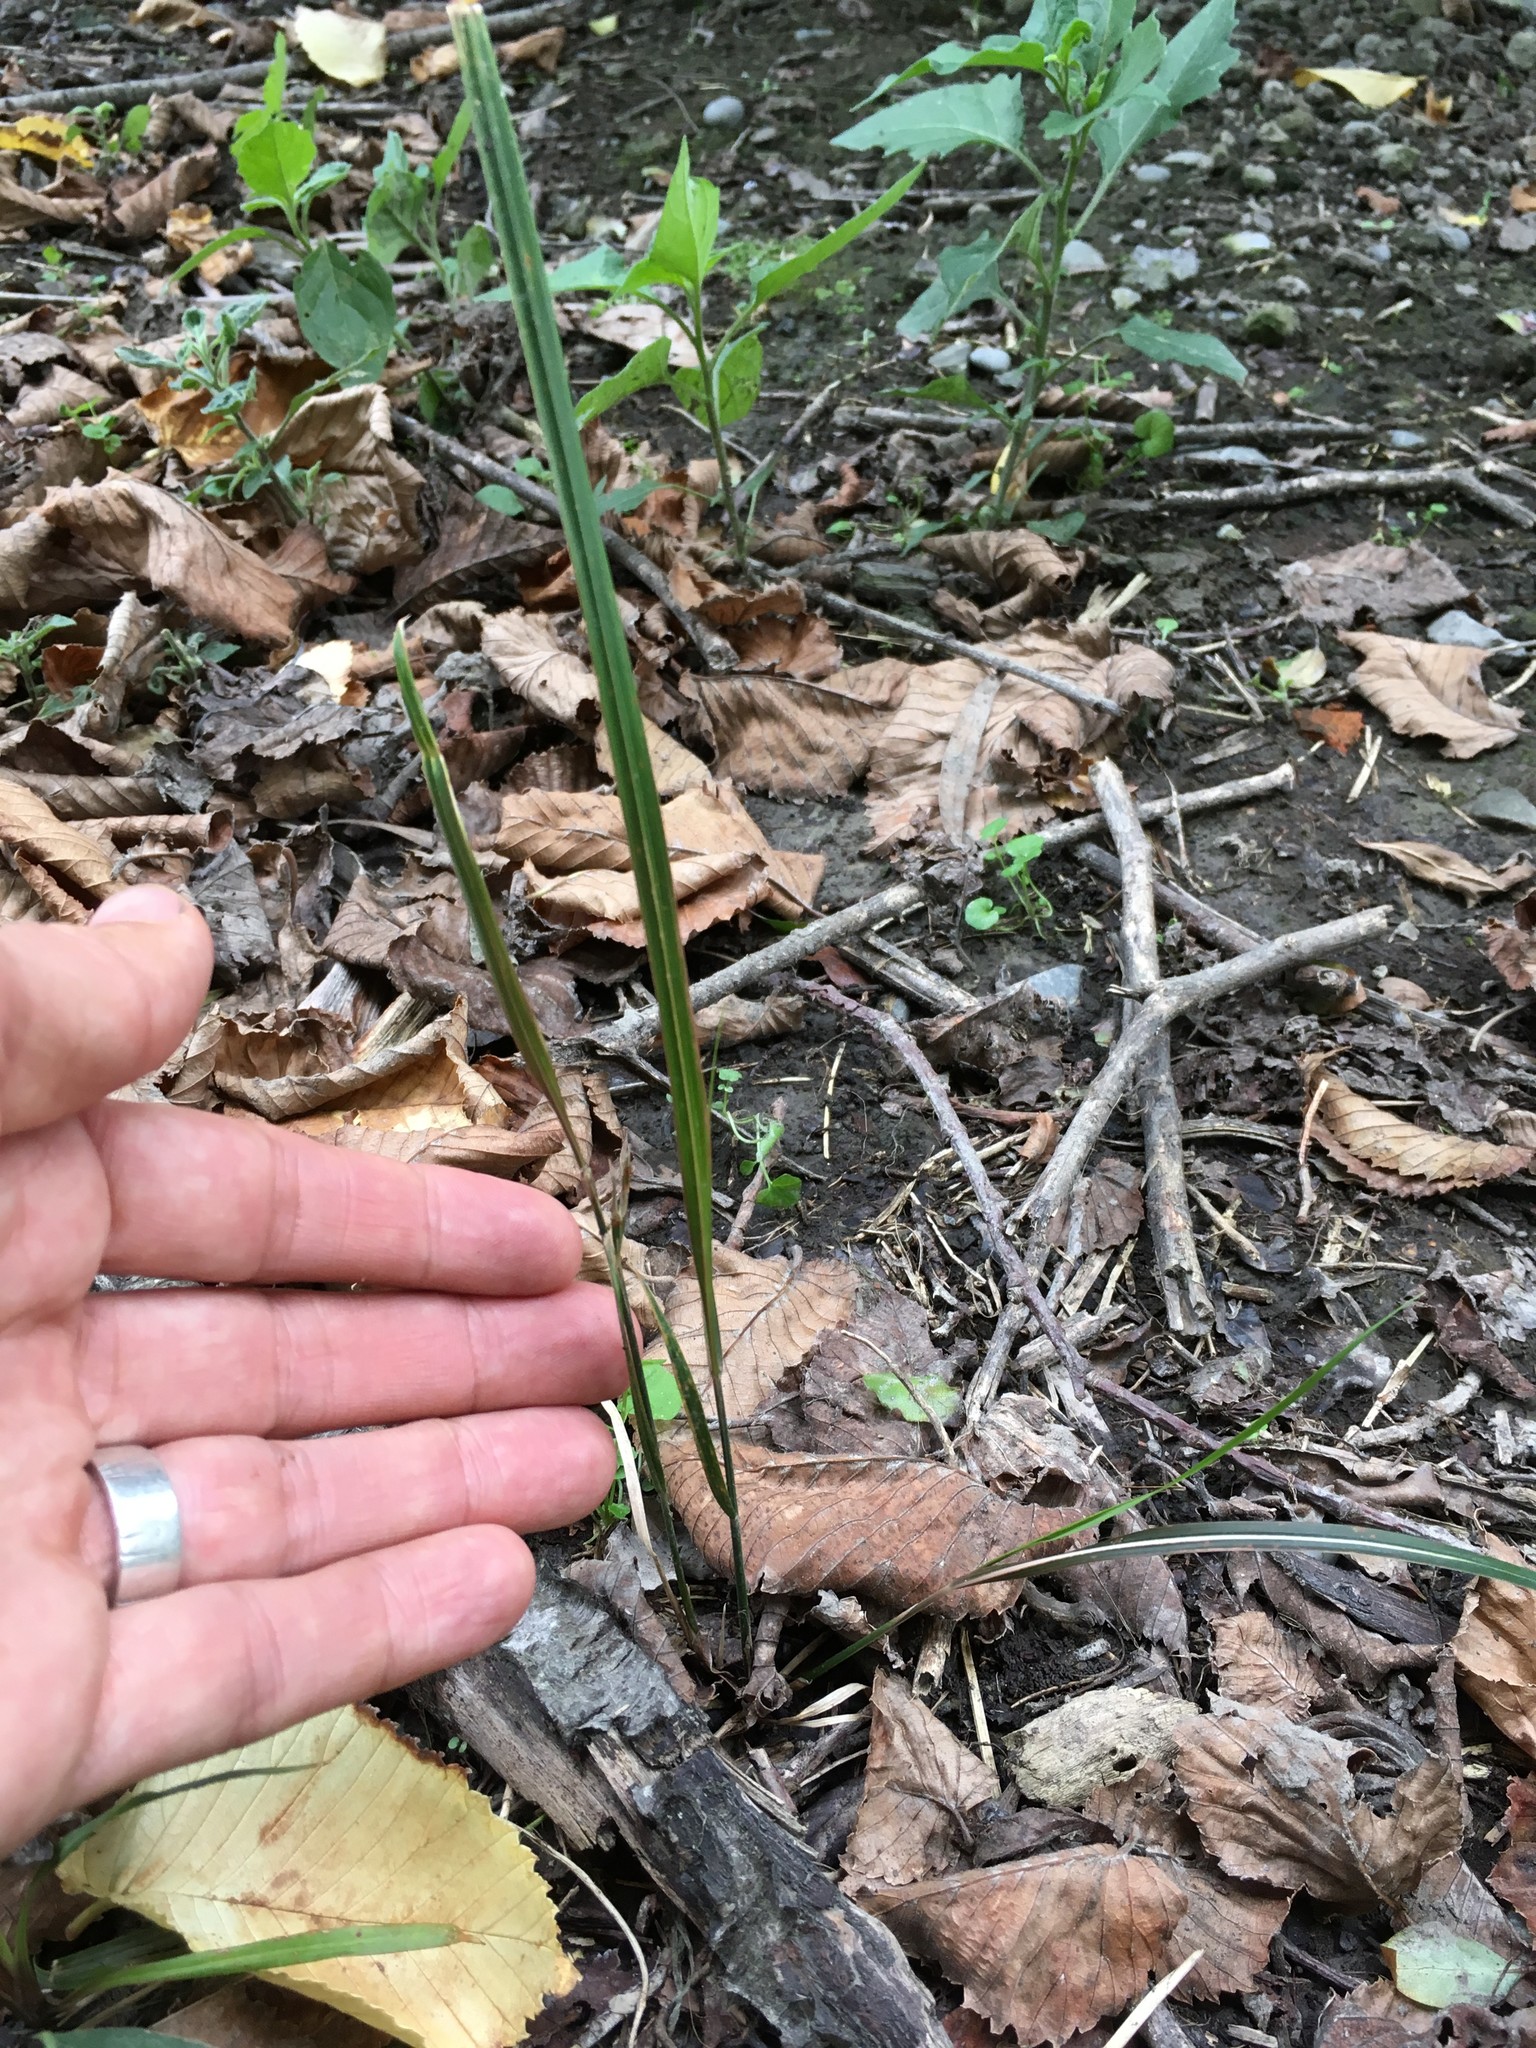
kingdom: Plantae
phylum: Tracheophyta
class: Liliopsida
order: Poales
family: Poaceae
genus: Anemanthele
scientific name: Anemanthele lessoniana
